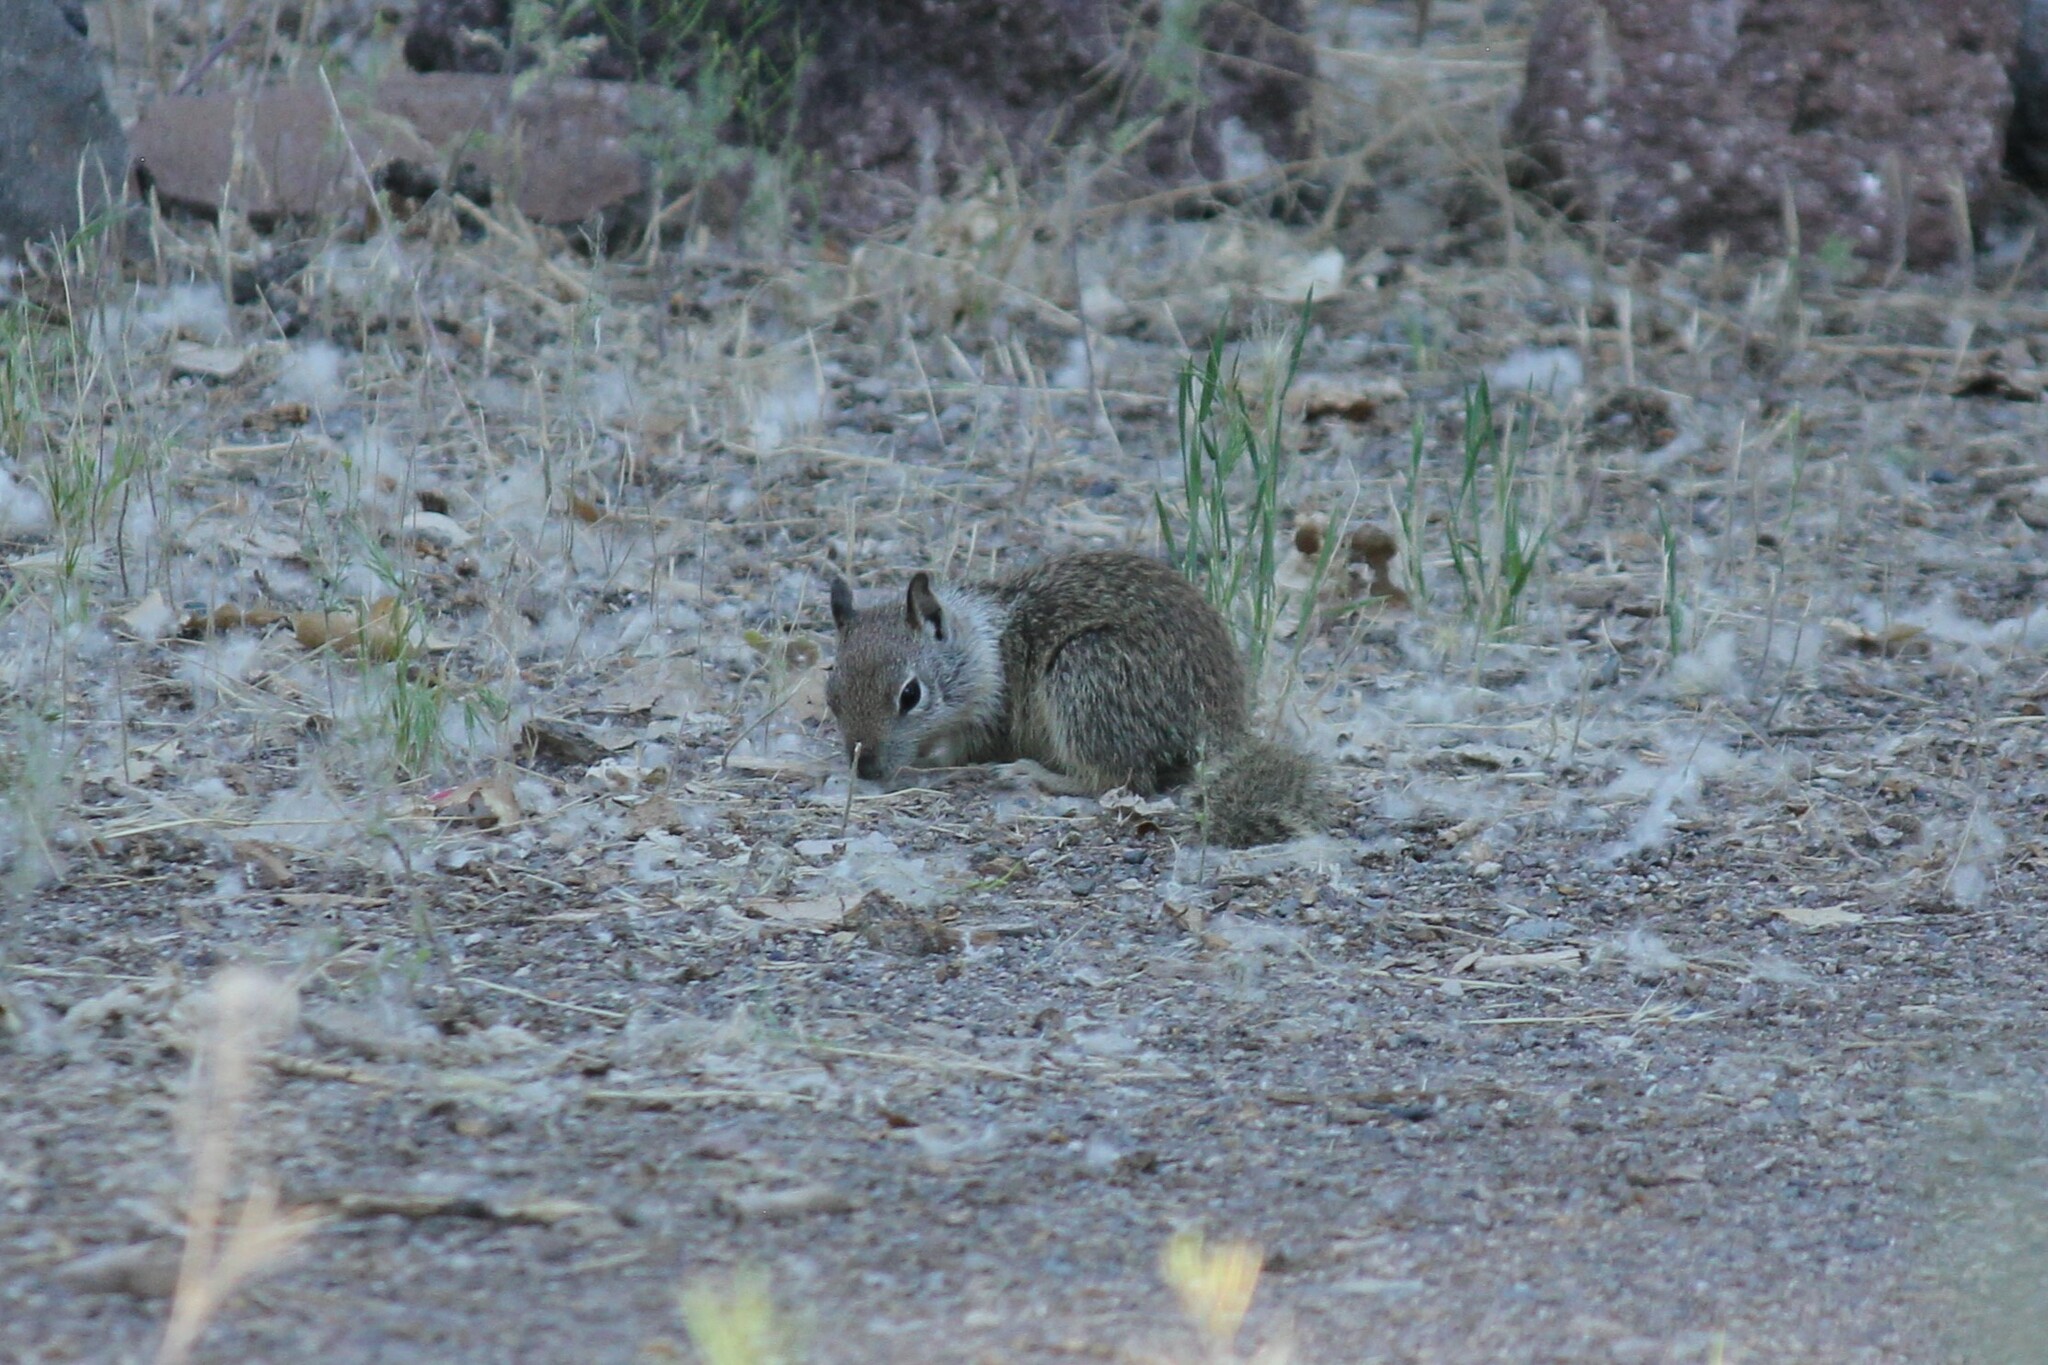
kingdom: Animalia
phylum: Chordata
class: Mammalia
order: Rodentia
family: Sciuridae
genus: Otospermophilus
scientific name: Otospermophilus beecheyi
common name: California ground squirrel
